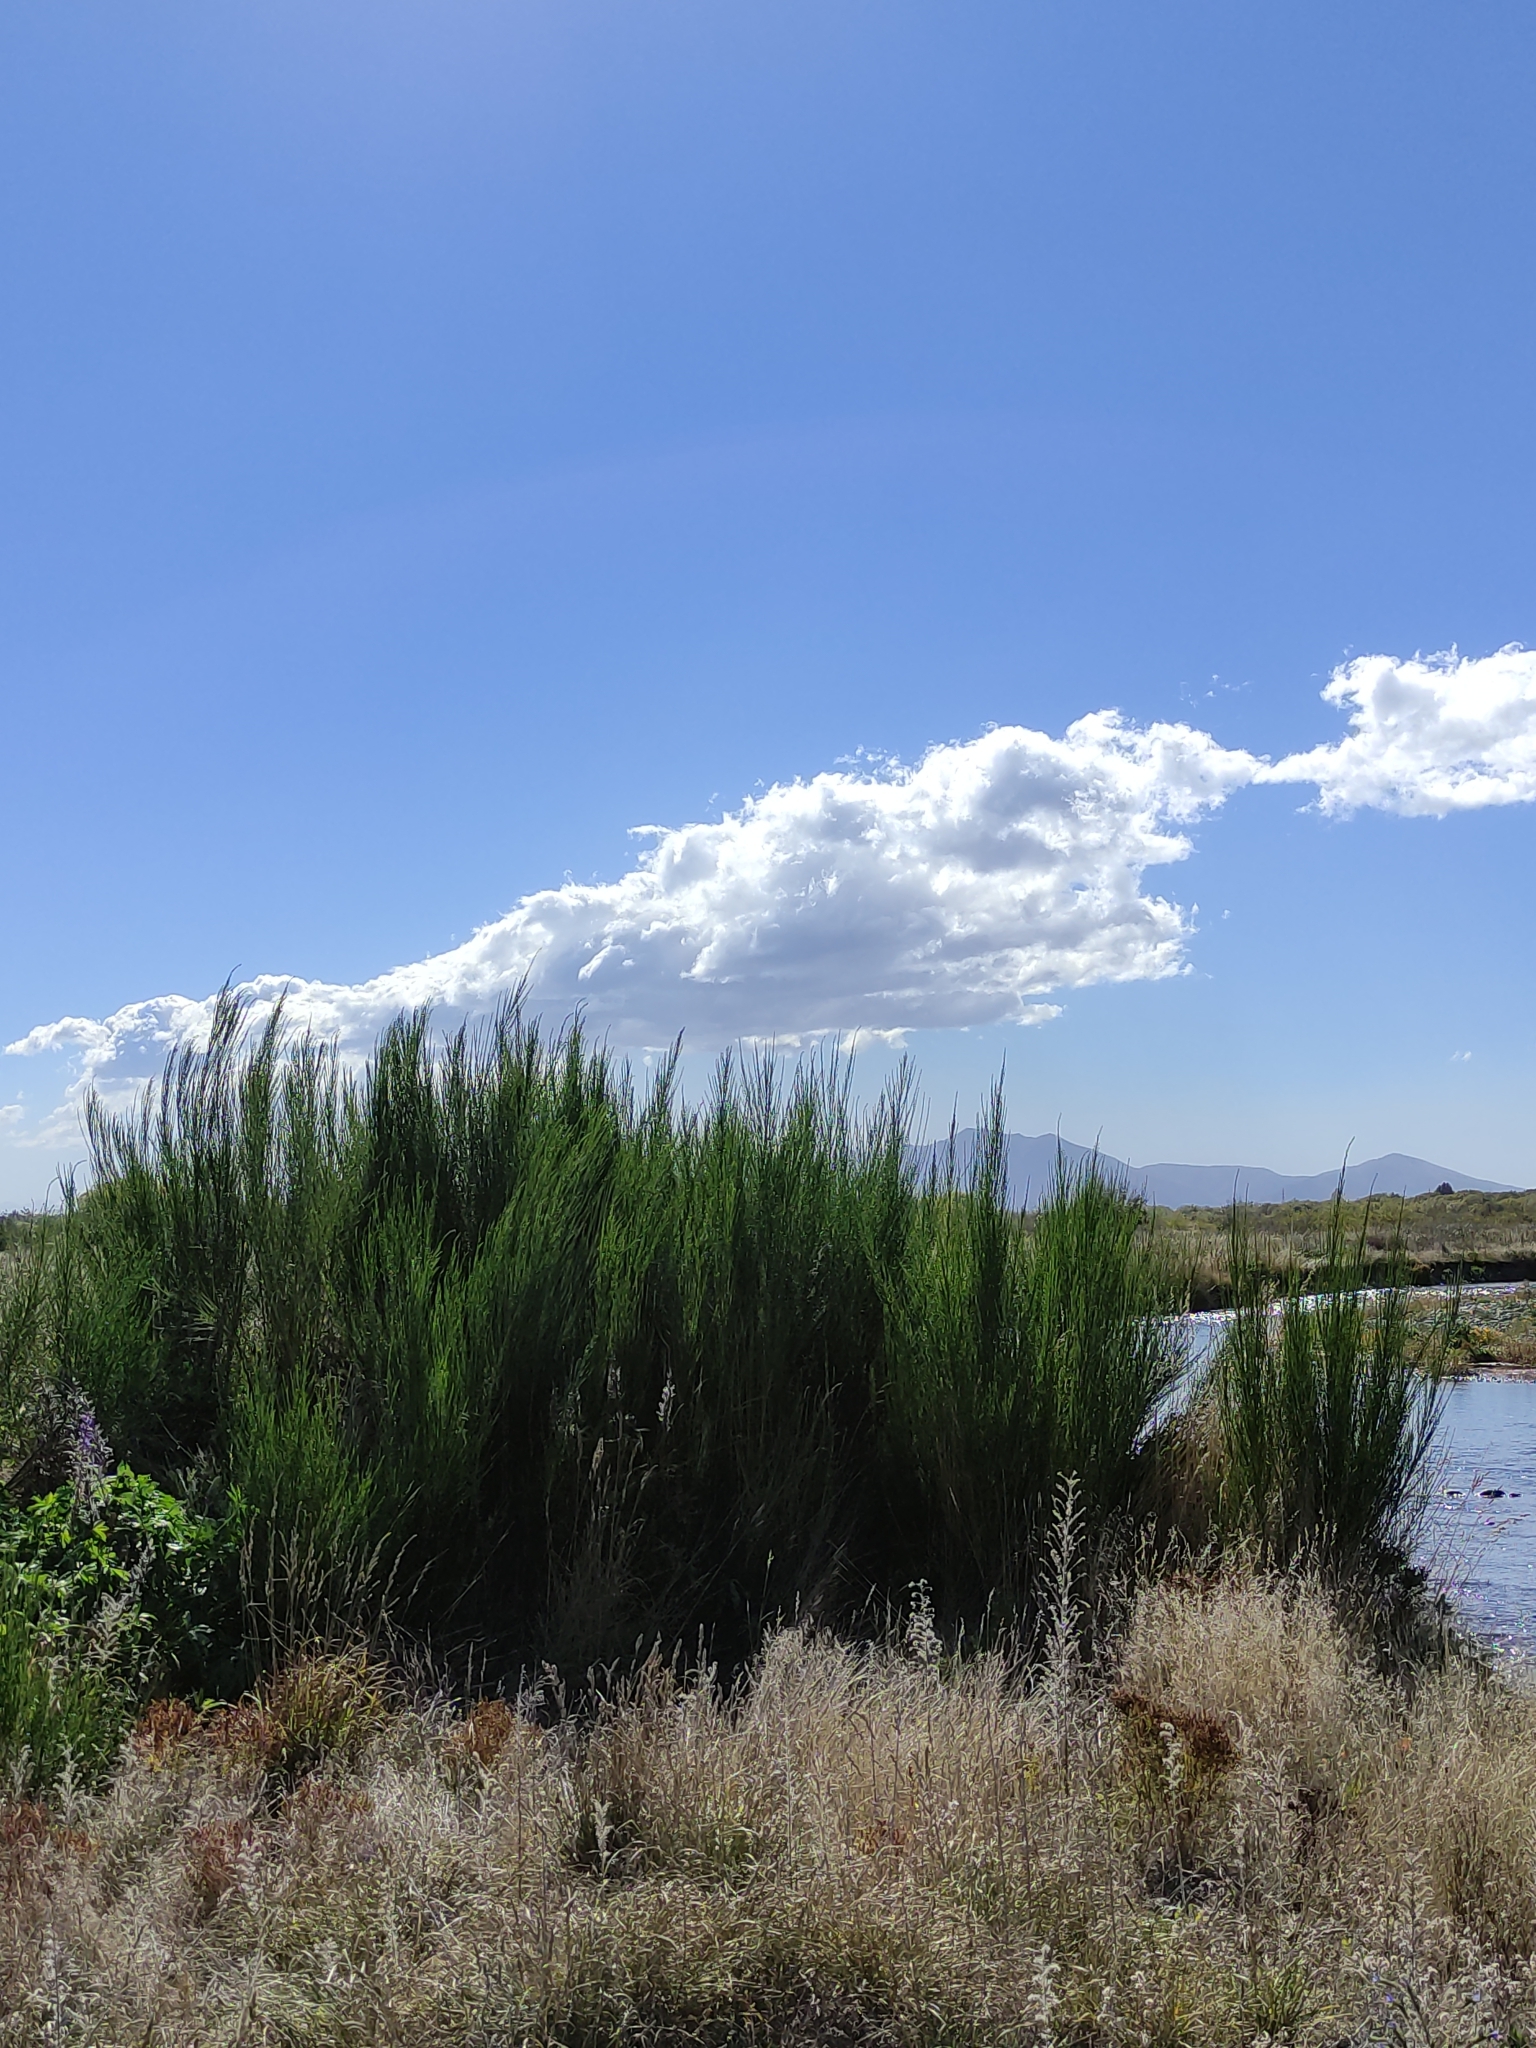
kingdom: Plantae
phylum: Tracheophyta
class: Magnoliopsida
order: Fabales
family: Fabaceae
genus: Cytisus
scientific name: Cytisus scoparius
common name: Scotch broom
